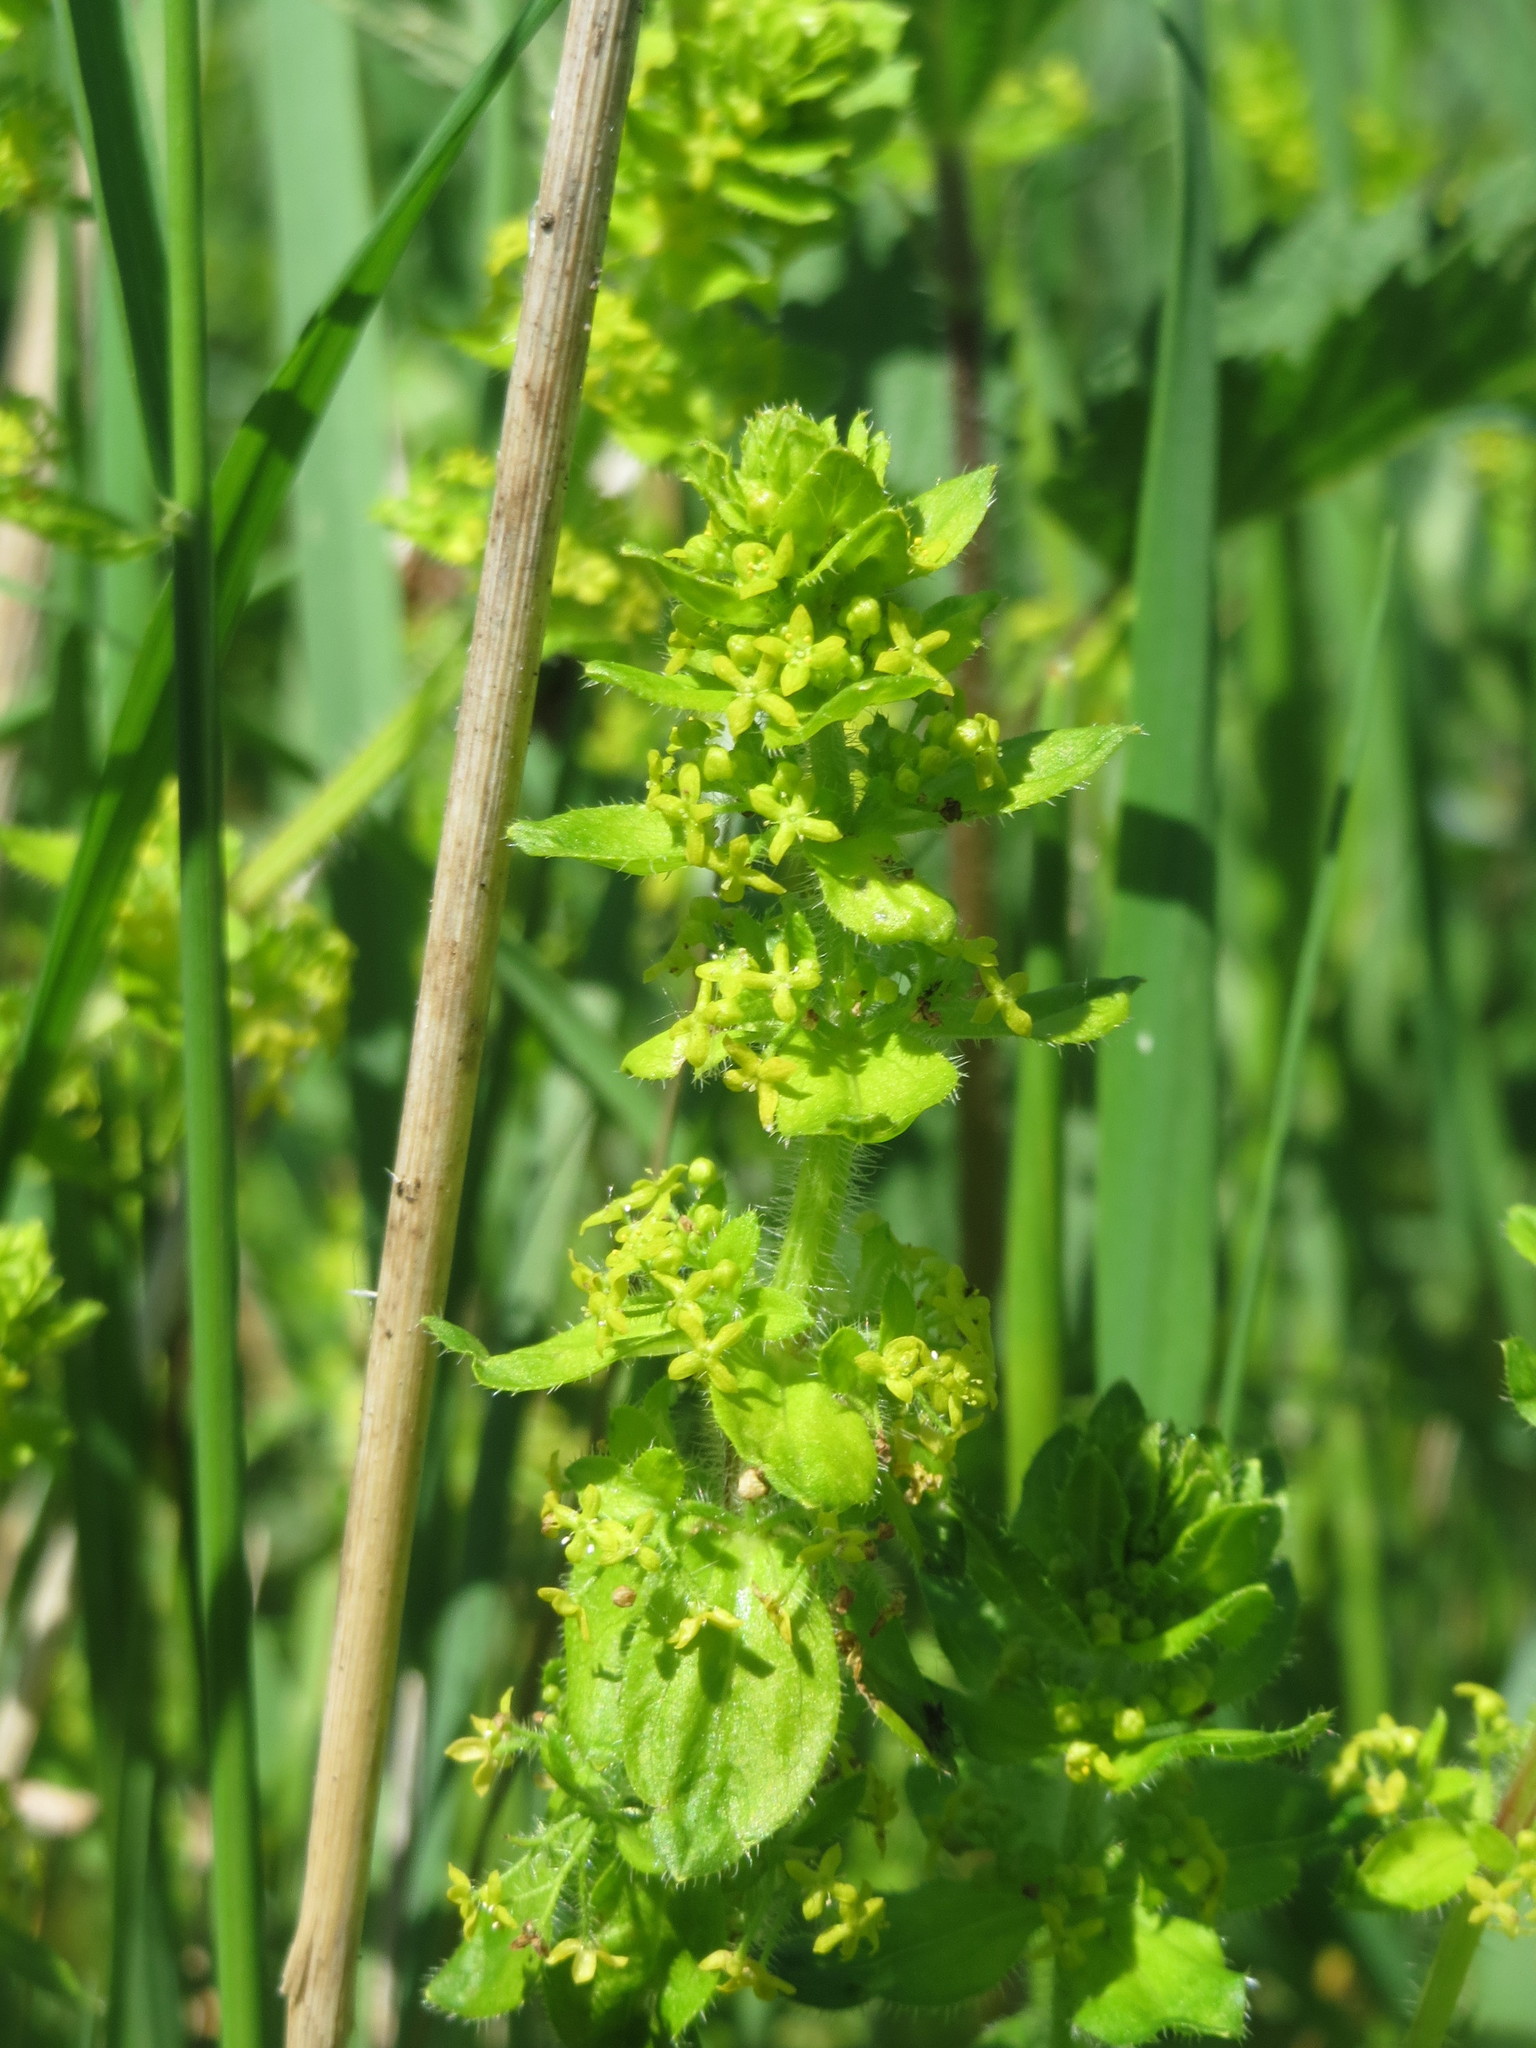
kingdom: Plantae
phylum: Tracheophyta
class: Magnoliopsida
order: Gentianales
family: Rubiaceae
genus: Cruciata
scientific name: Cruciata laevipes
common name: Crosswort
